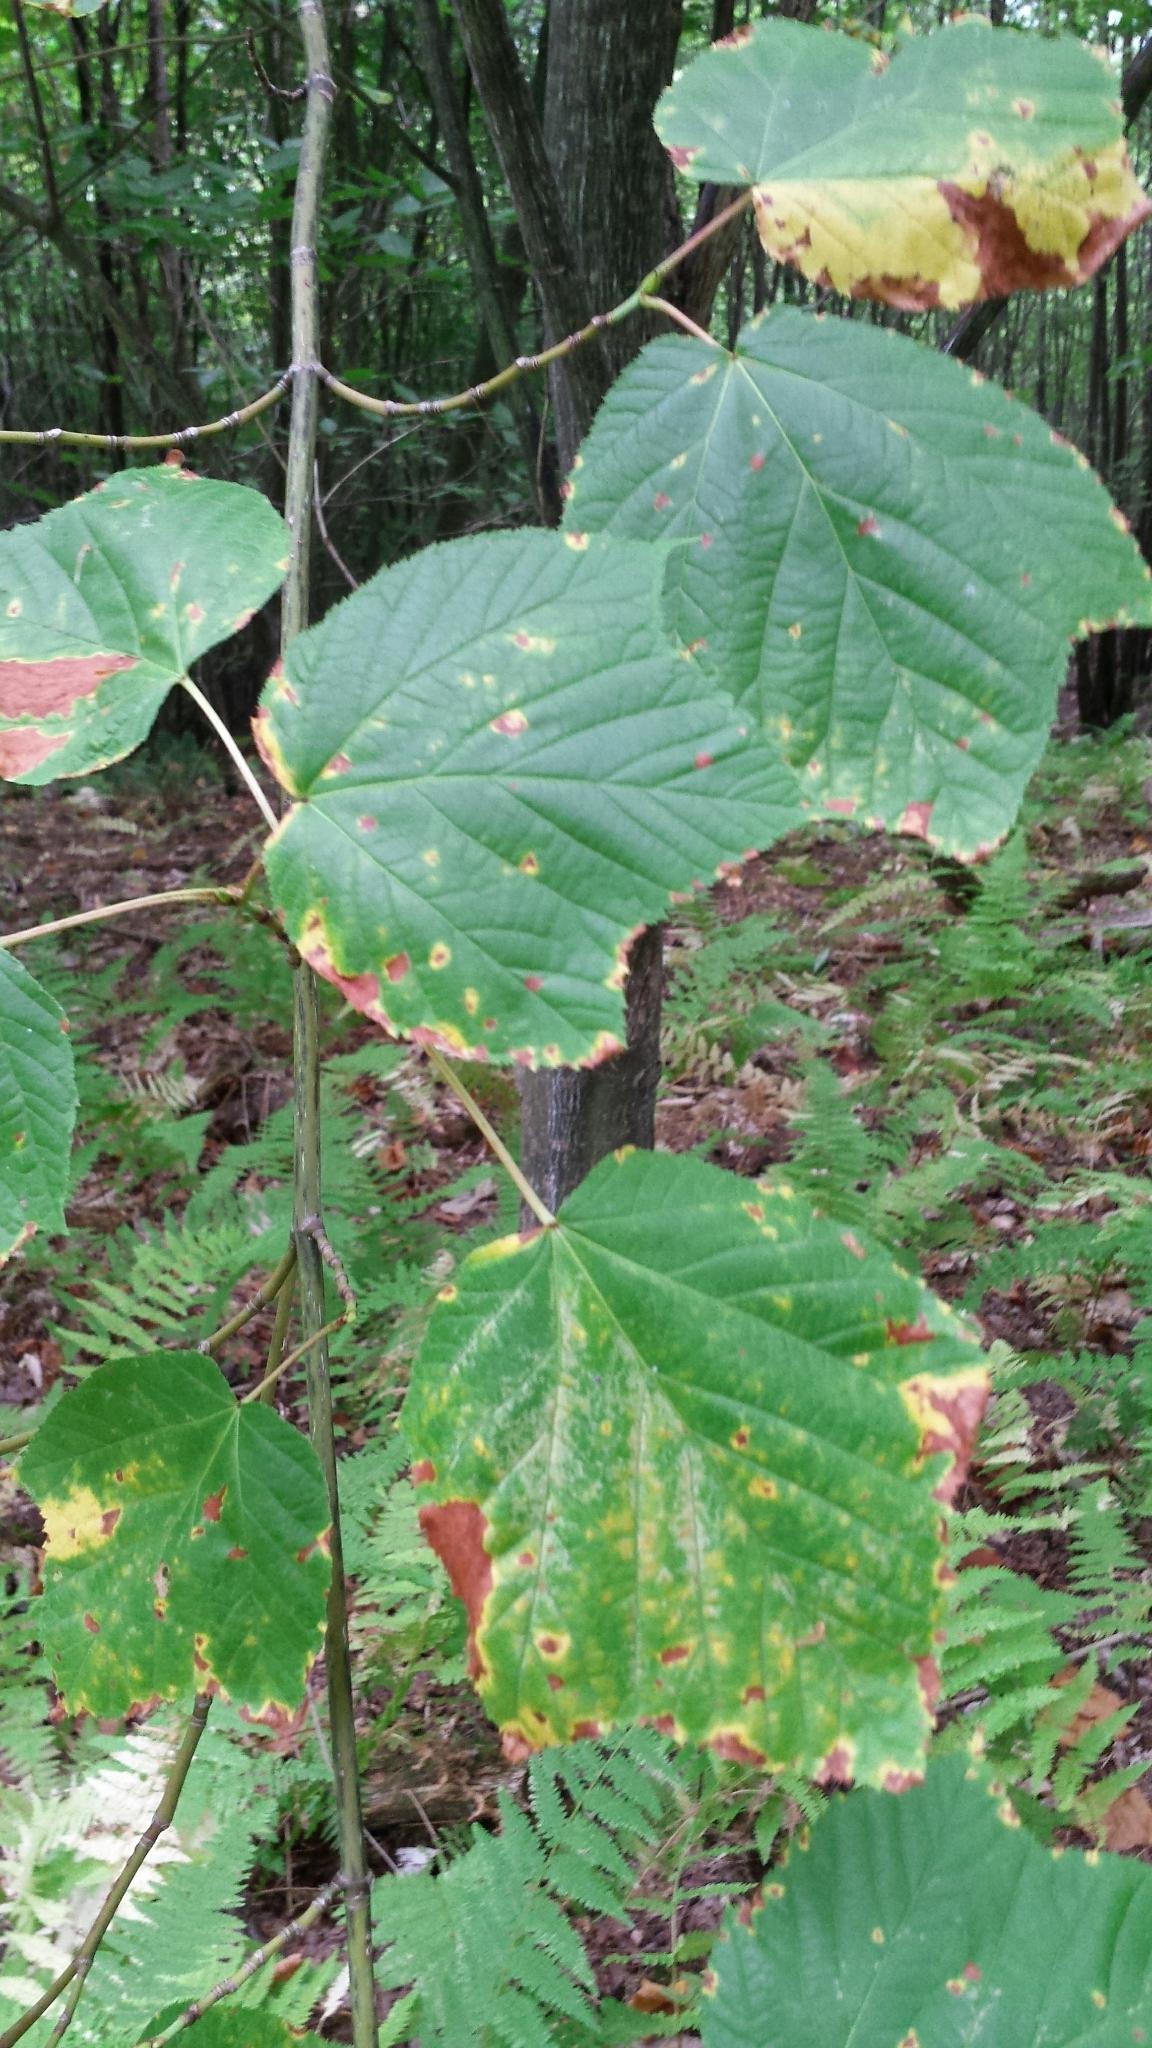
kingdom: Plantae
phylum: Tracheophyta
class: Magnoliopsida
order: Sapindales
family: Sapindaceae
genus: Acer
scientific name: Acer pensylvanicum
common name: Moosewood
